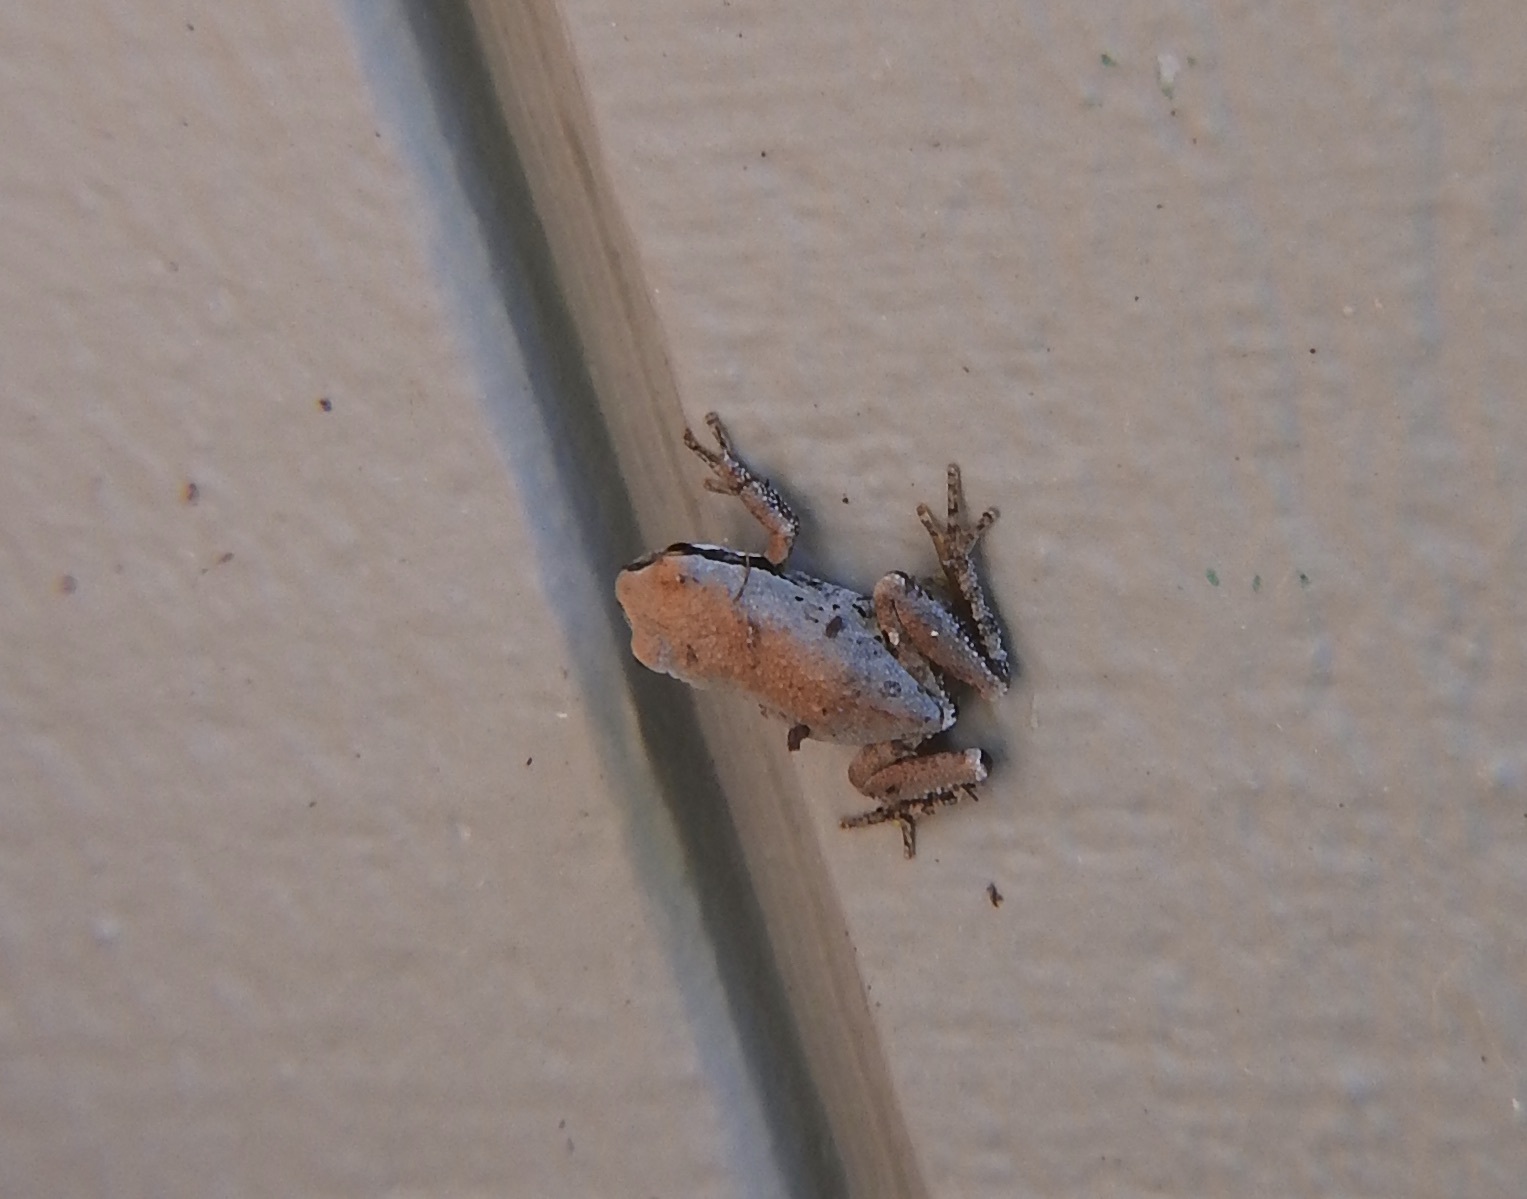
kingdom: Animalia
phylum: Chordata
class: Amphibia
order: Anura
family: Hylidae
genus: Pseudacris
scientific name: Pseudacris regilla
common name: Pacific chorus frog
